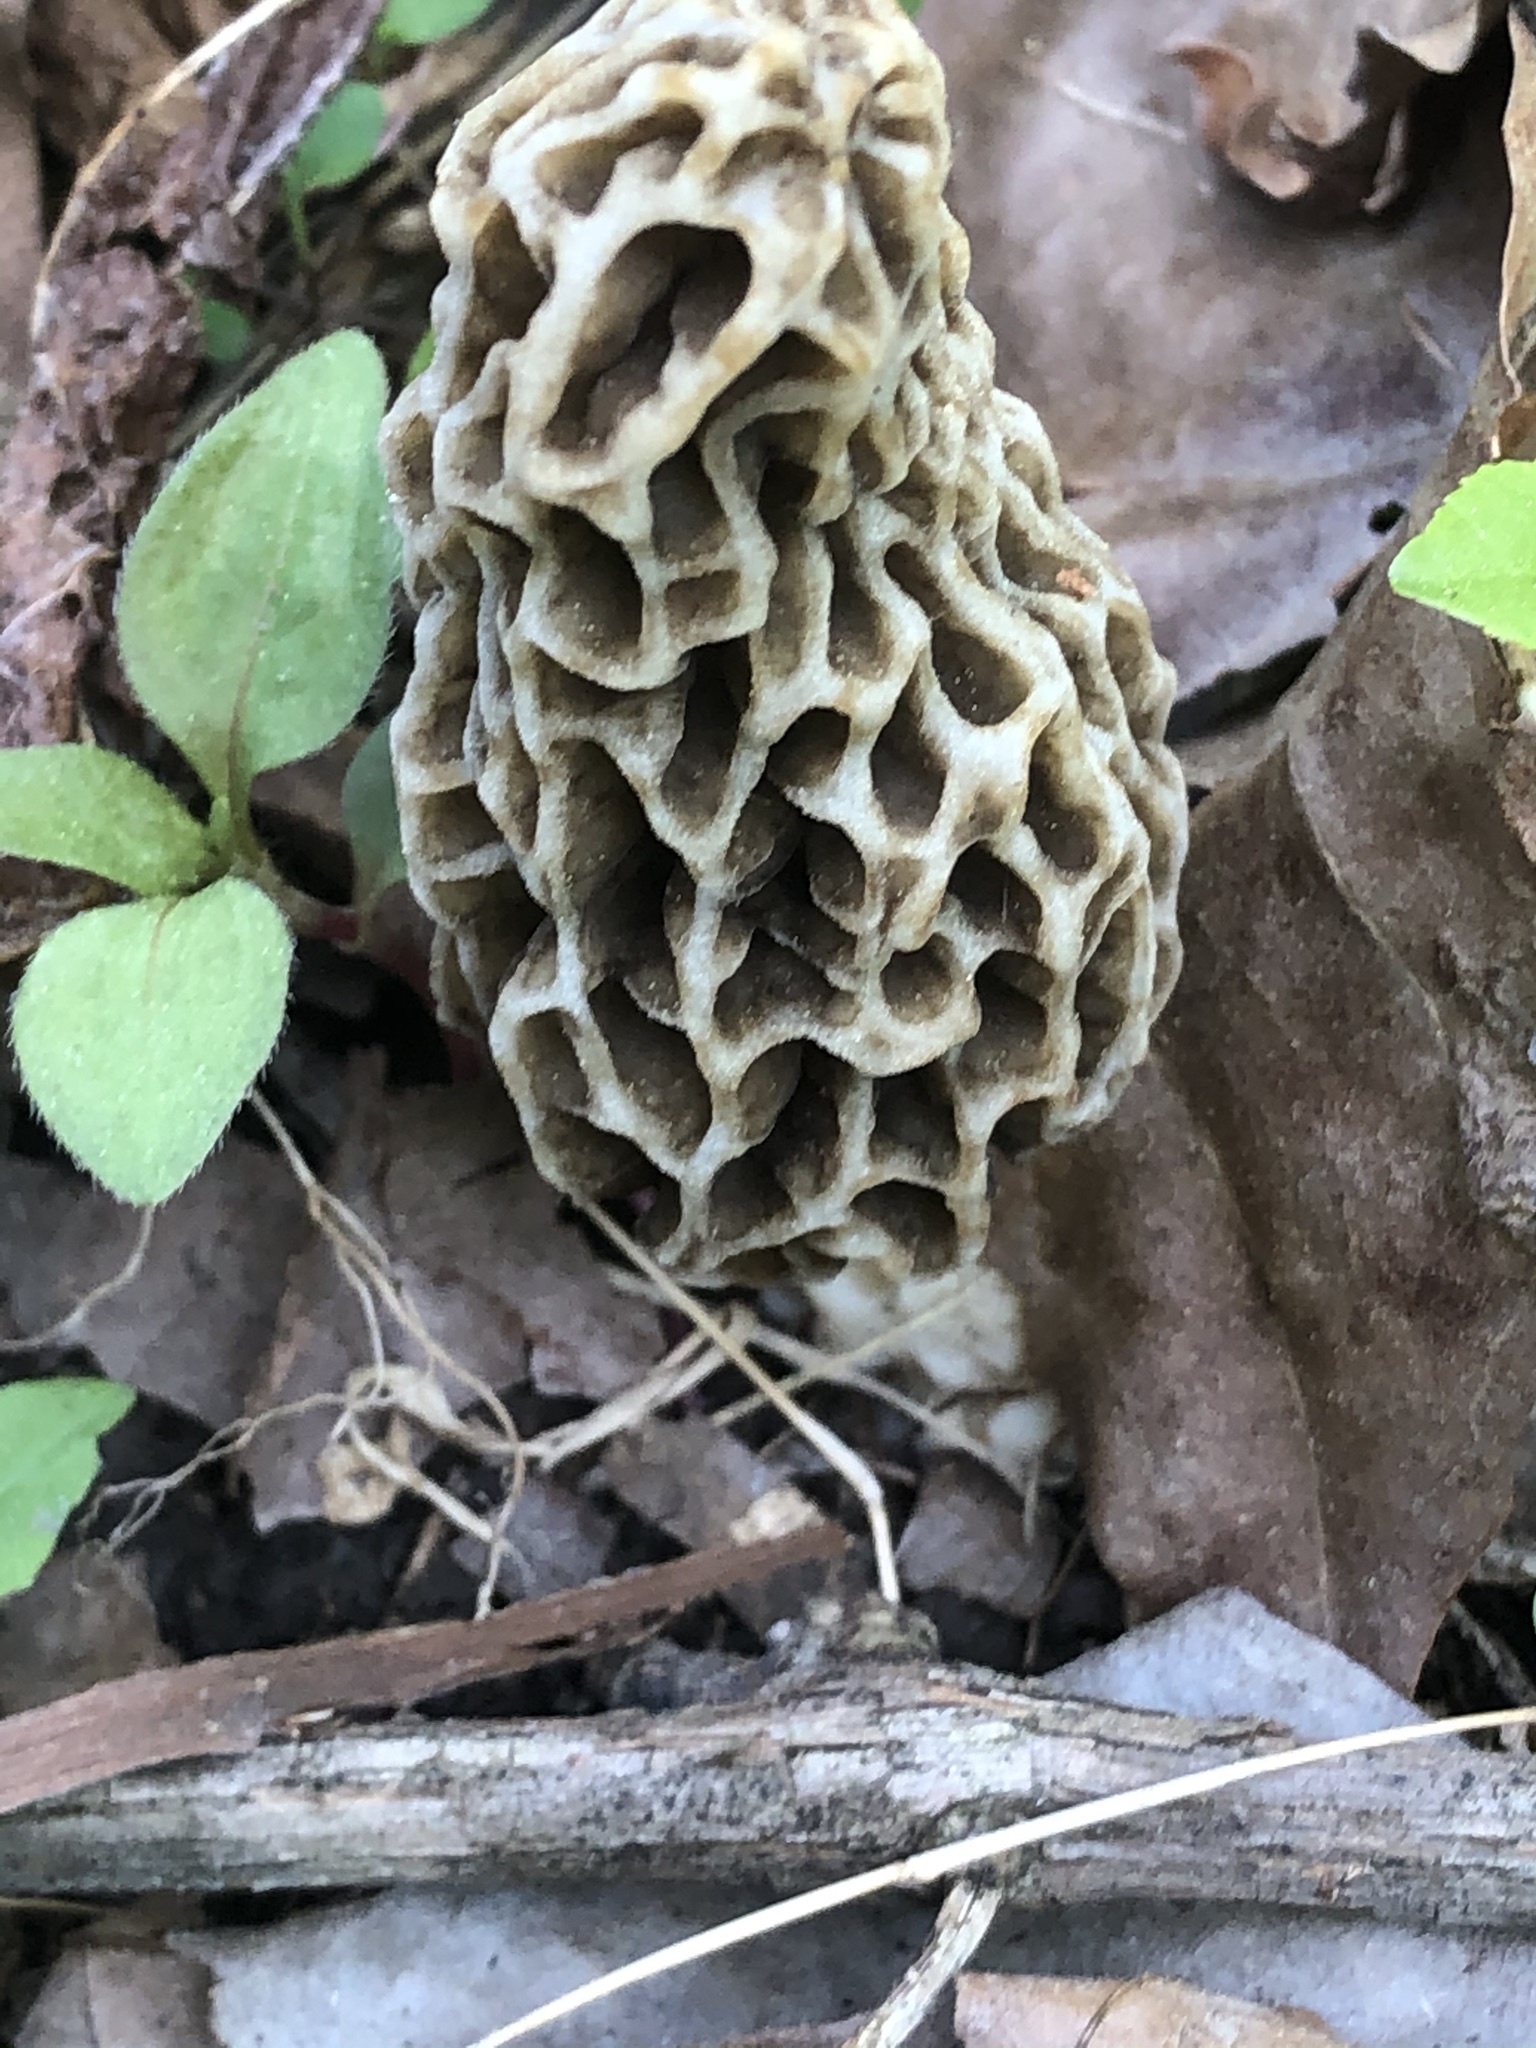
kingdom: Fungi
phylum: Ascomycota
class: Pezizomycetes
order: Pezizales
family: Morchellaceae
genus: Morchella
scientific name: Morchella americana
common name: White morel
